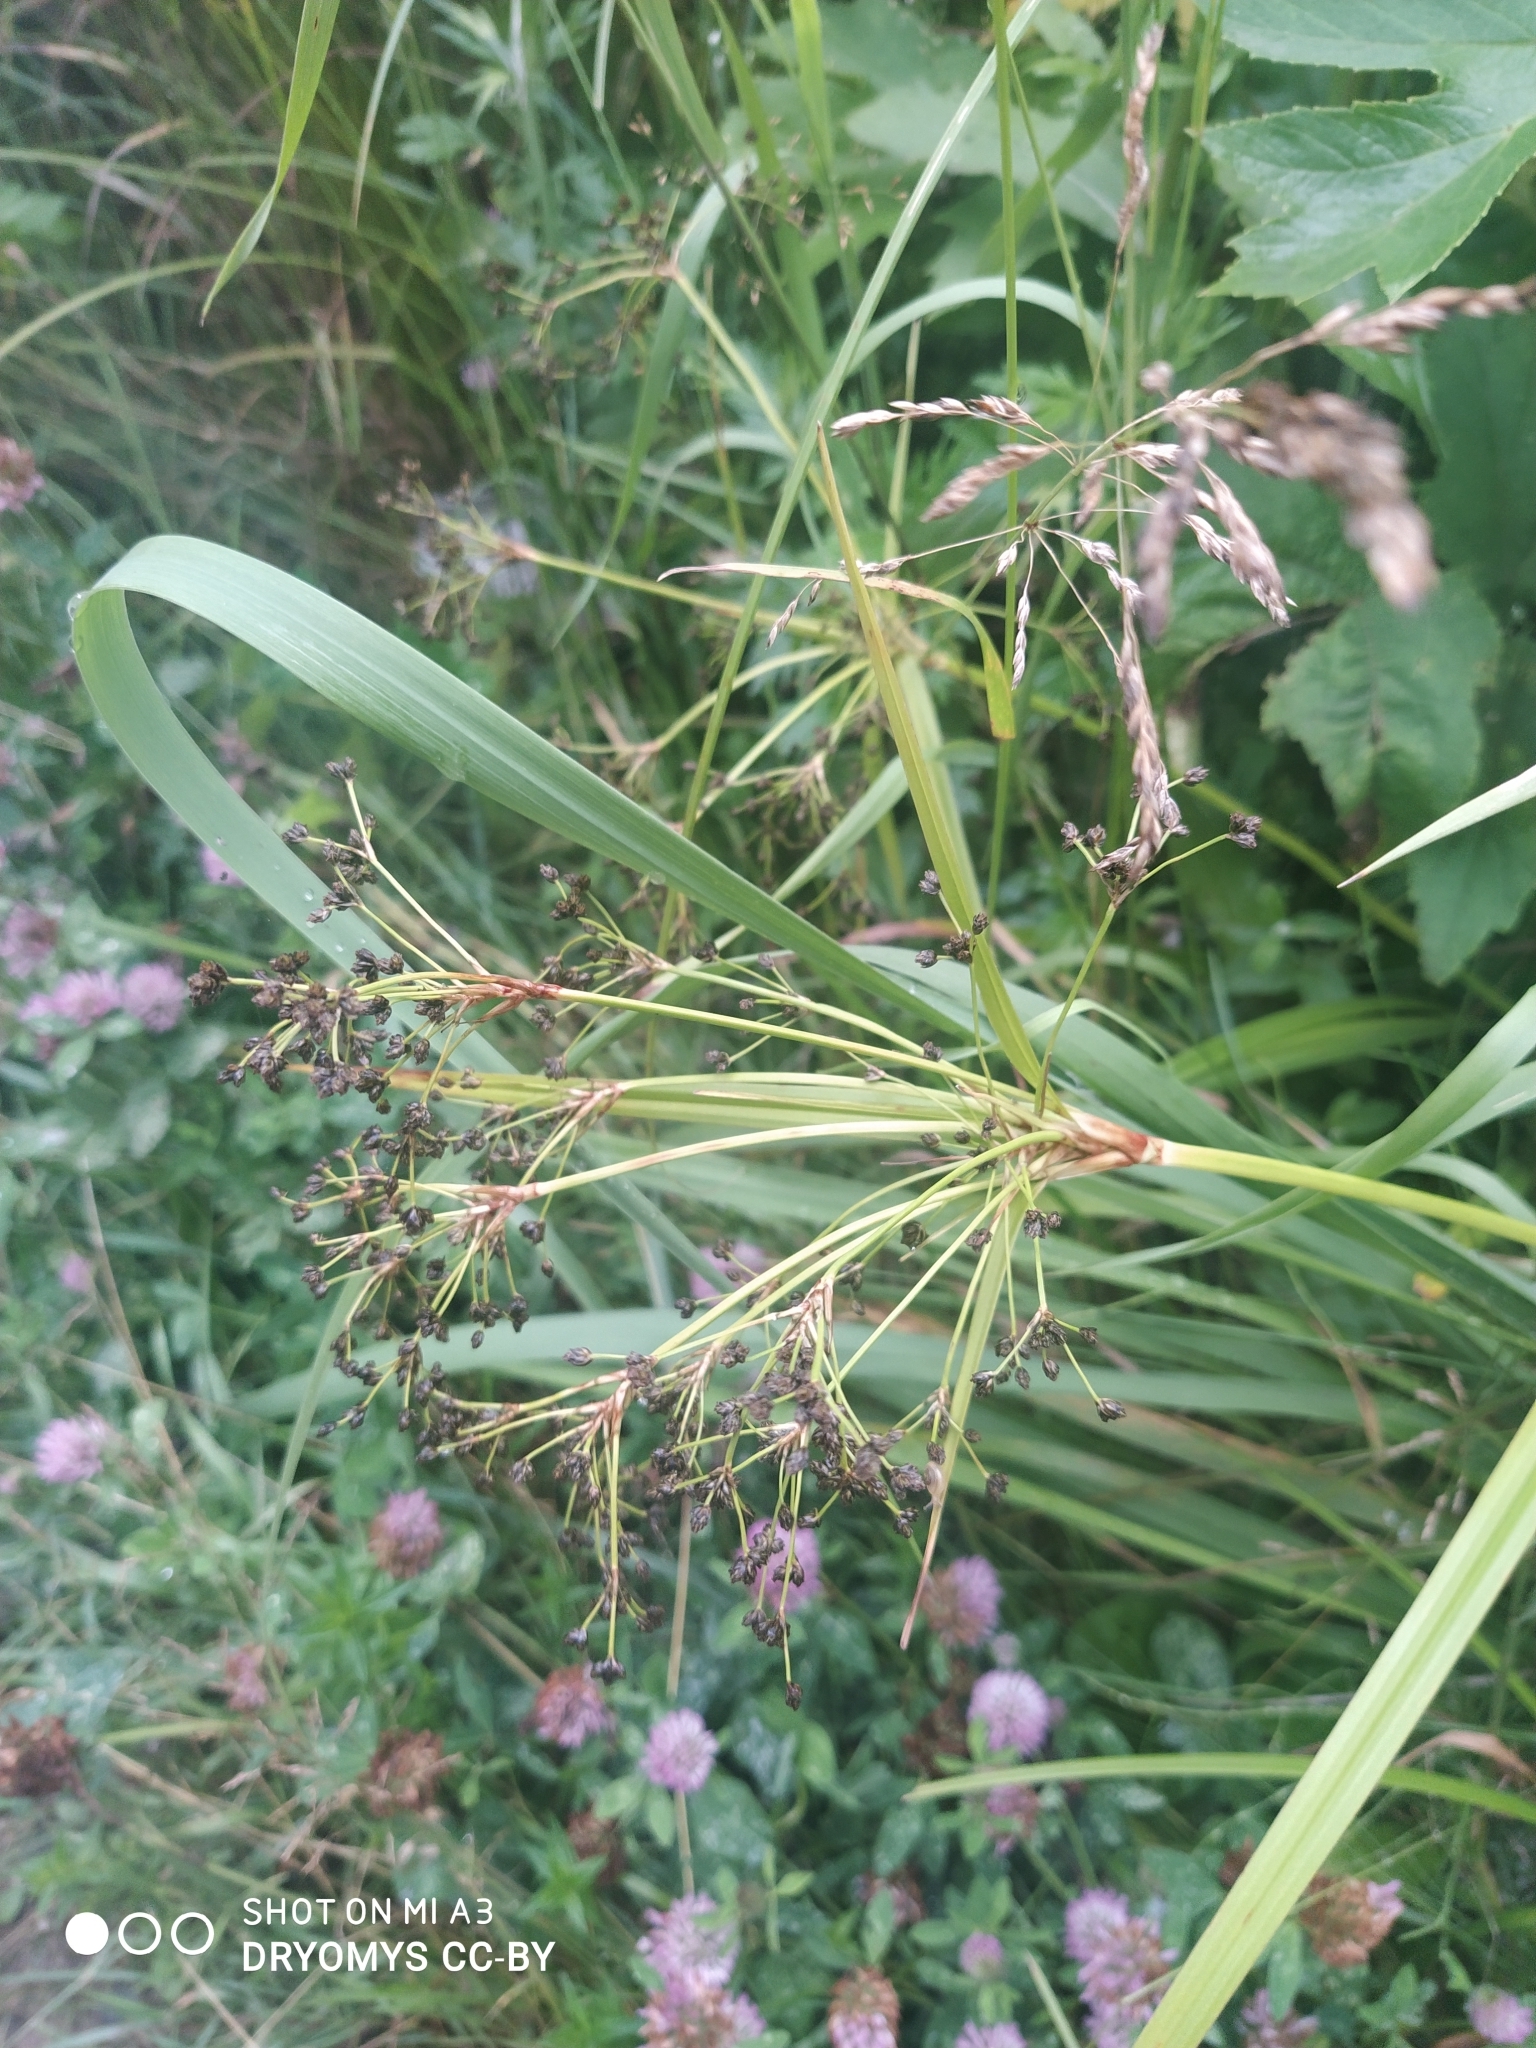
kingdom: Plantae
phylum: Tracheophyta
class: Liliopsida
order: Poales
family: Cyperaceae
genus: Scirpus
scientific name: Scirpus sylvaticus
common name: Wood club-rush
